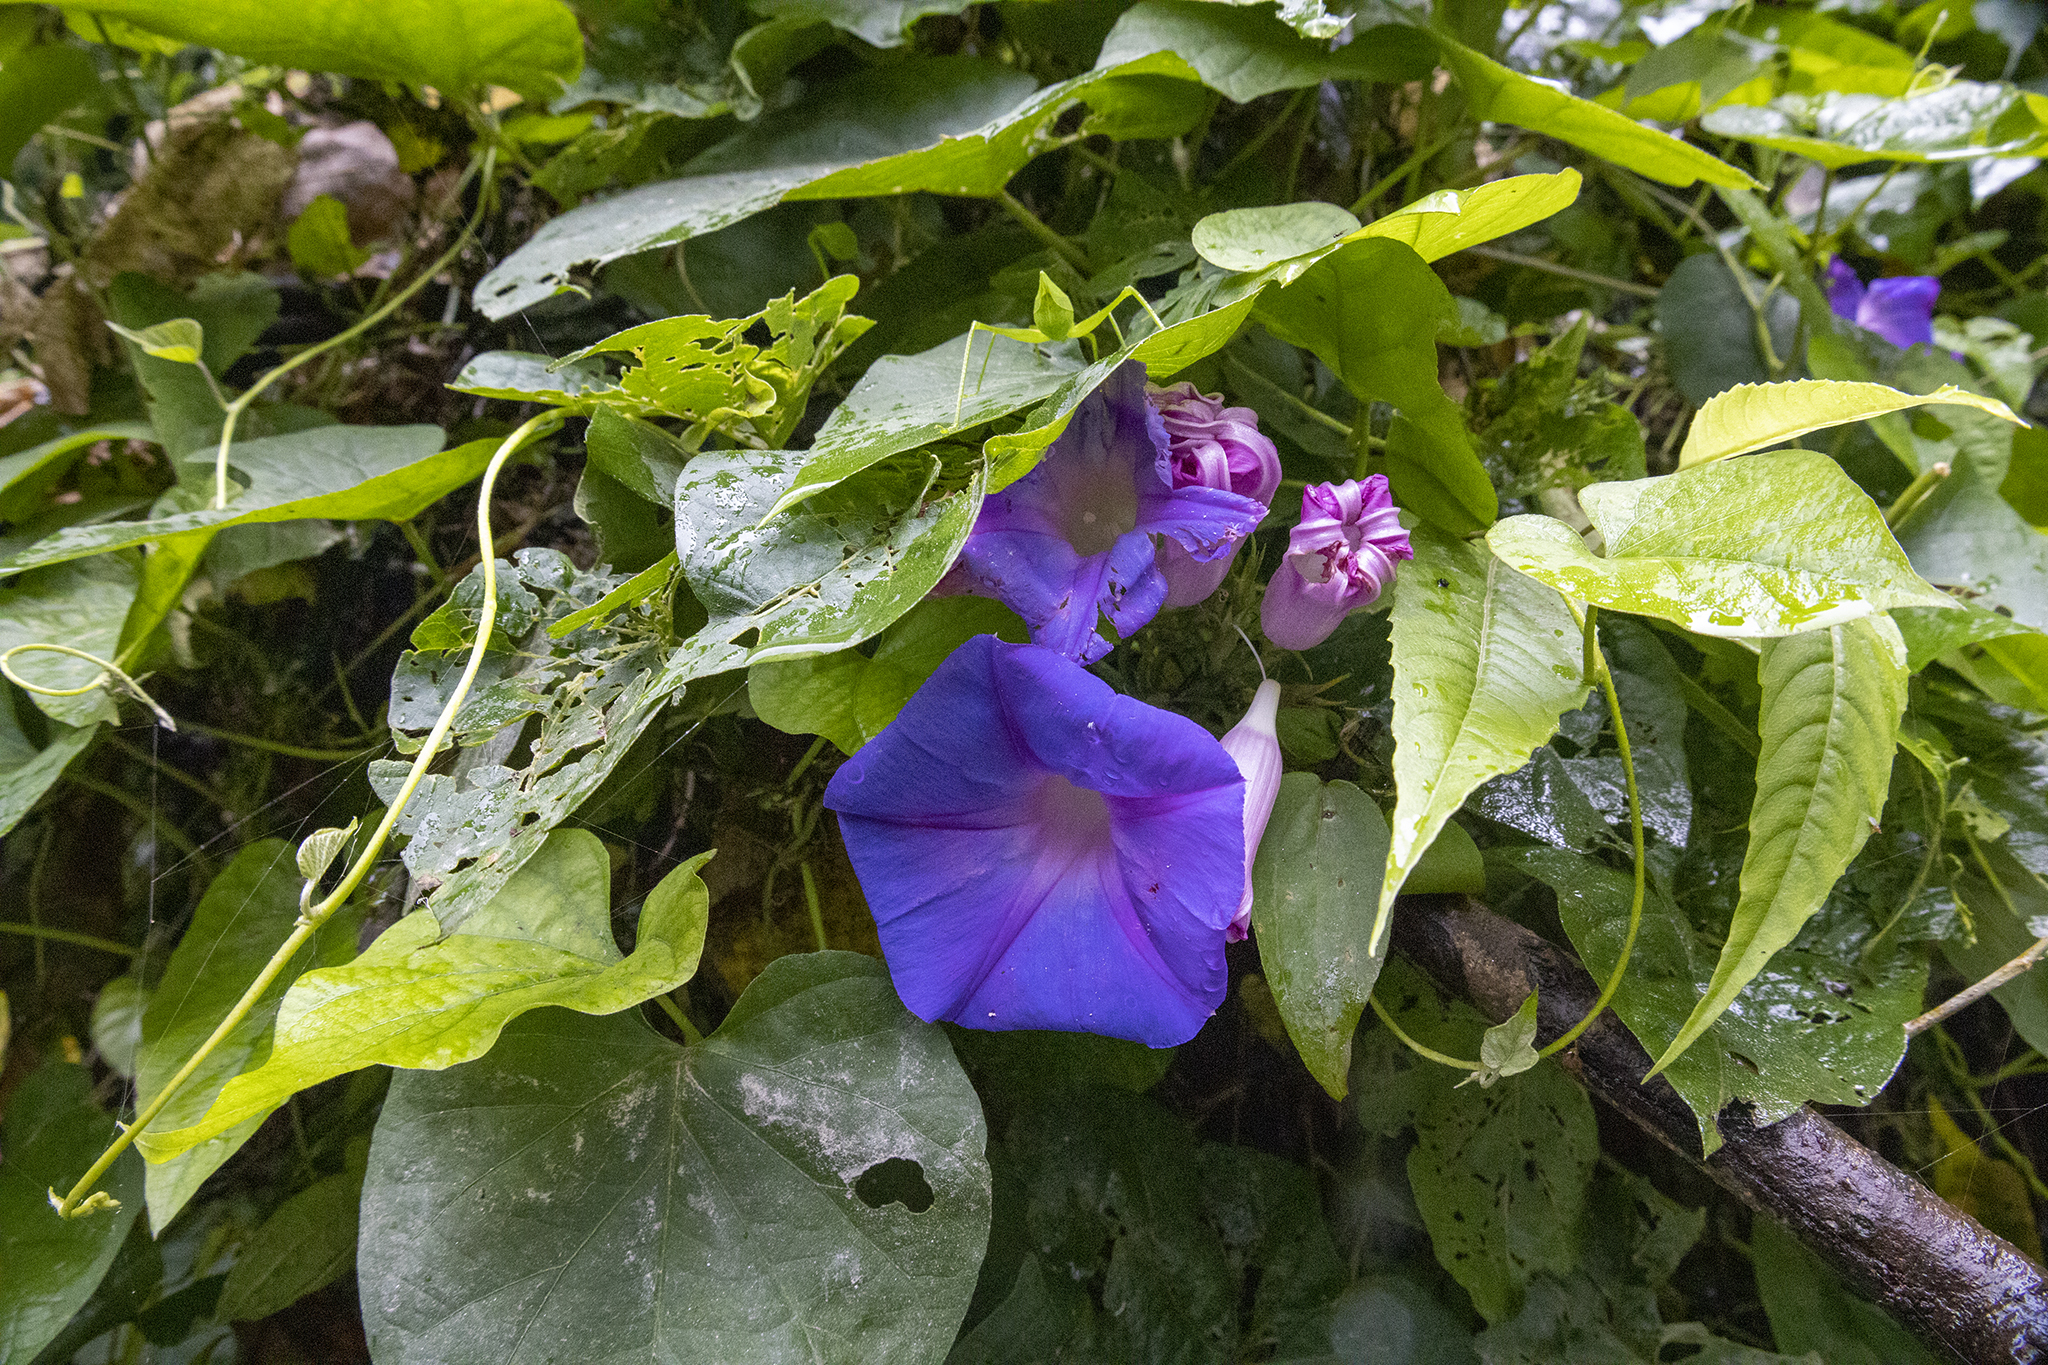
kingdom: Plantae
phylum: Tracheophyta
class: Magnoliopsida
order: Solanales
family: Convolvulaceae
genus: Ipomoea
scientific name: Ipomoea indica
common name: Blue dawnflower
